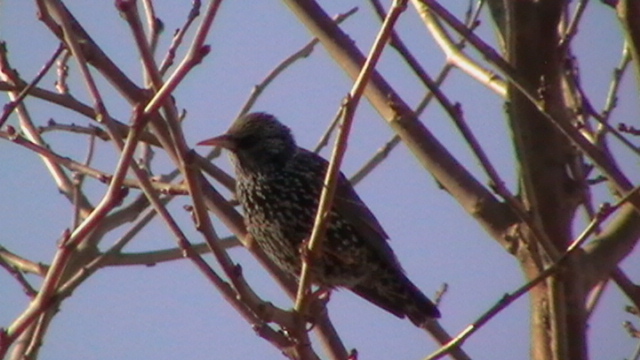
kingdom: Animalia
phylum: Chordata
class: Aves
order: Passeriformes
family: Sturnidae
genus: Sturnus
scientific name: Sturnus vulgaris
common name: Common starling
